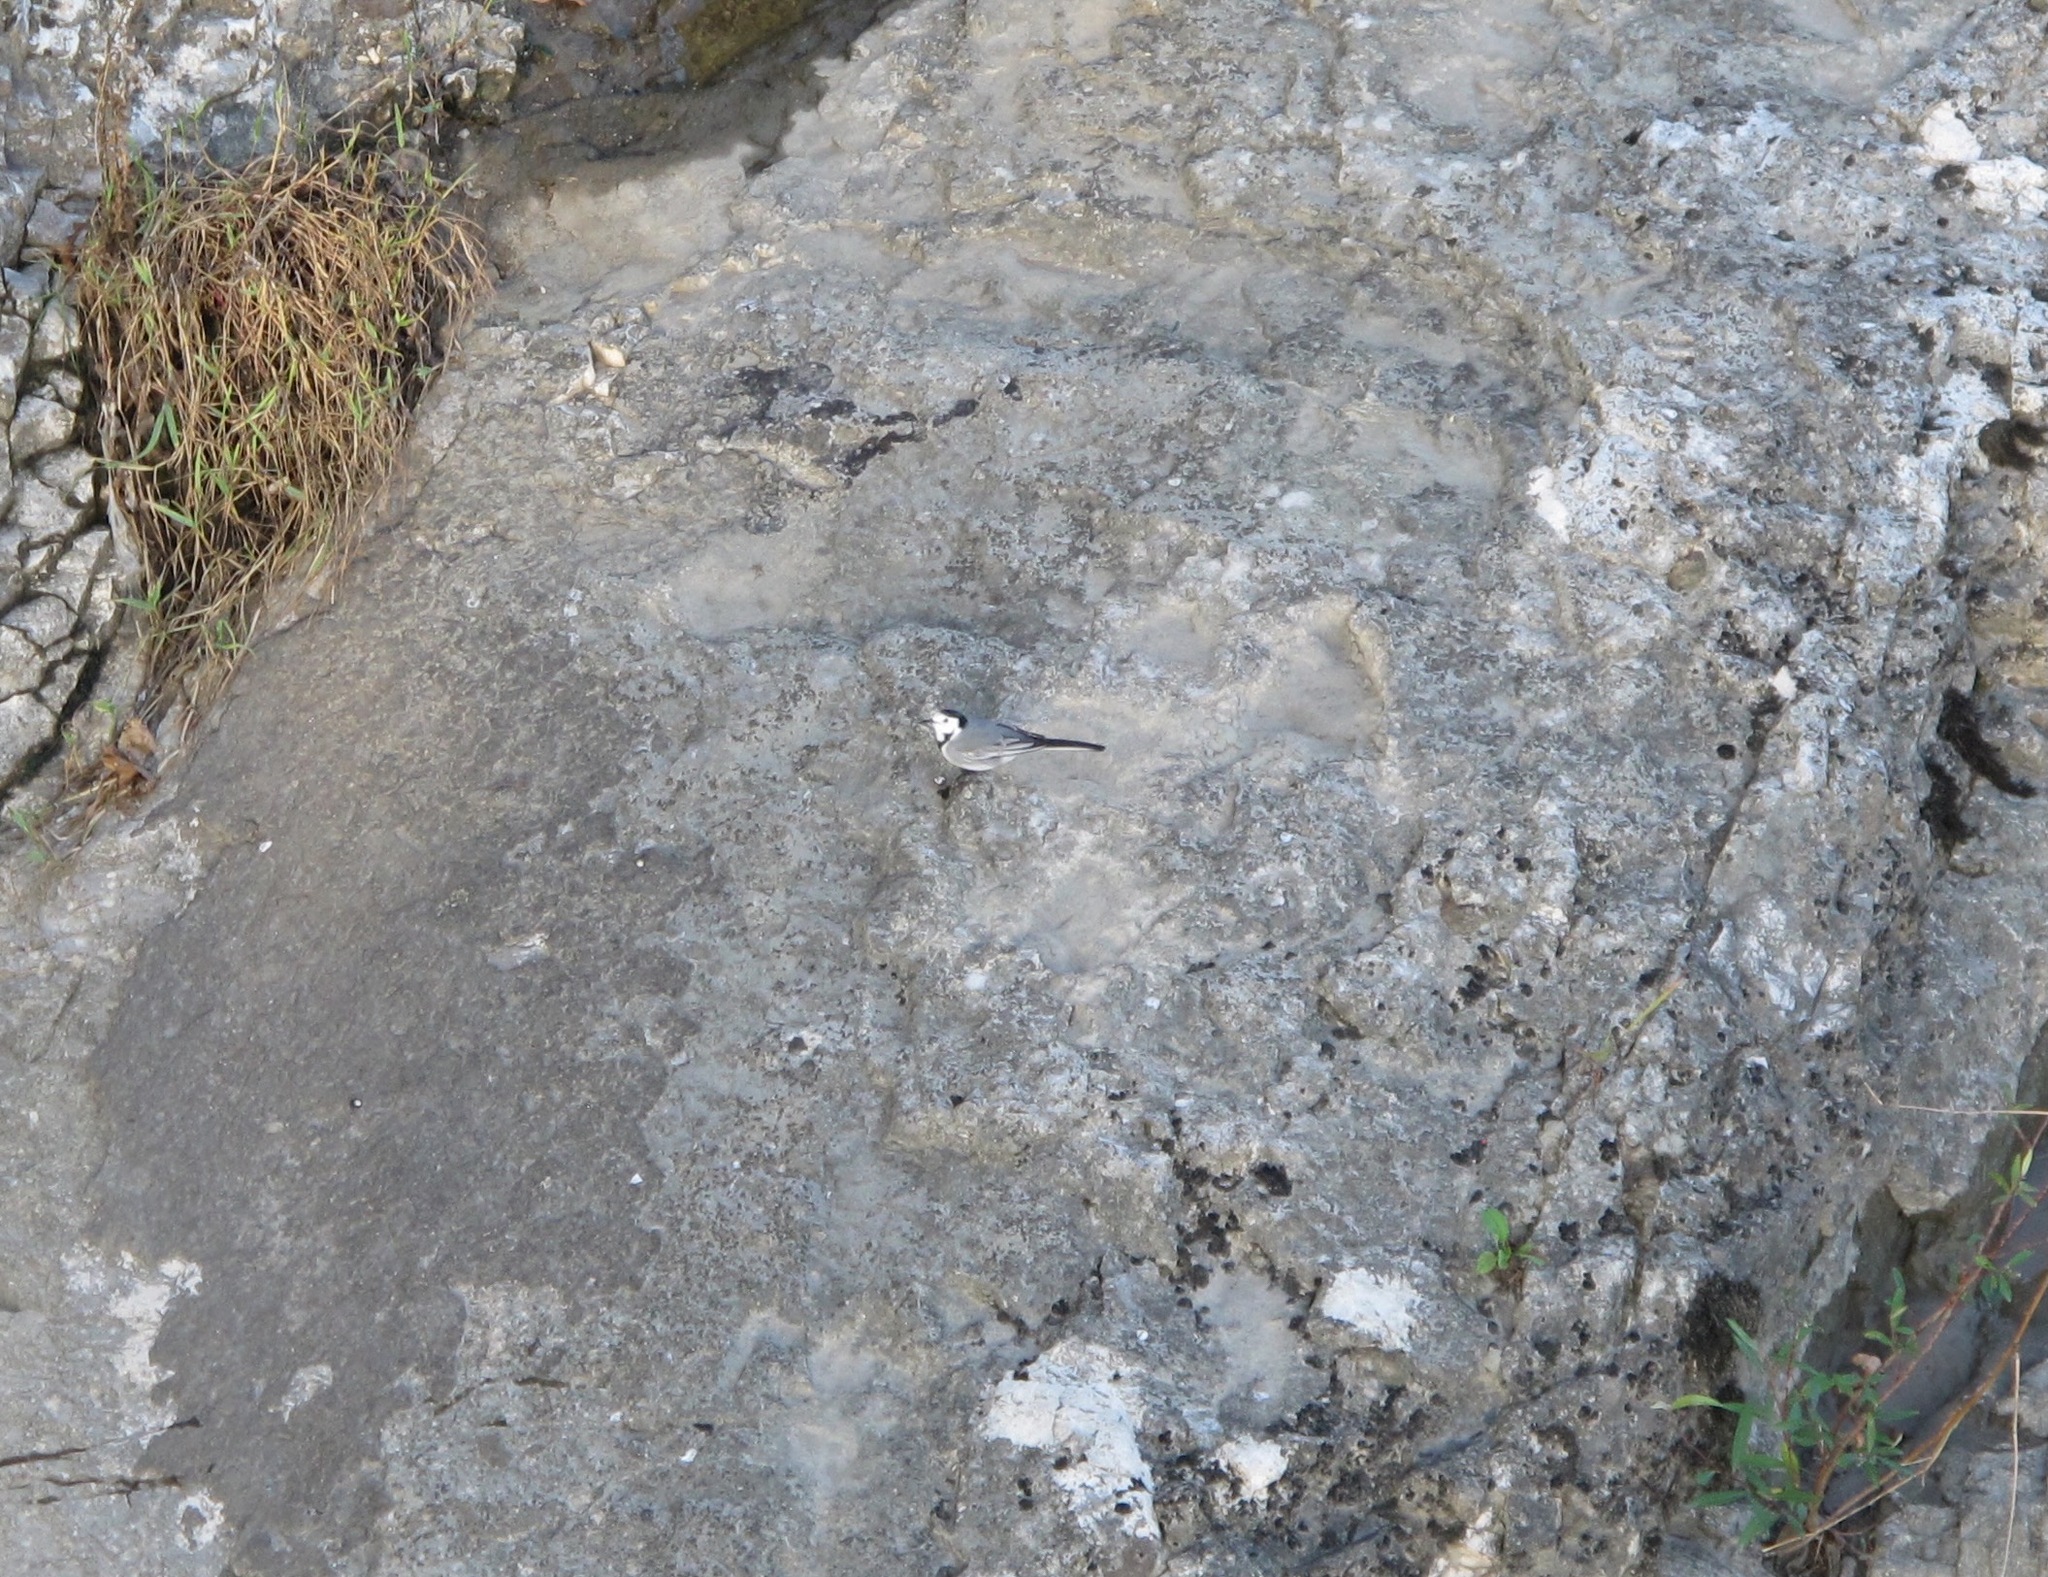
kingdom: Animalia
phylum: Chordata
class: Aves
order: Passeriformes
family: Motacillidae
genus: Motacilla
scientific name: Motacilla alba
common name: White wagtail
